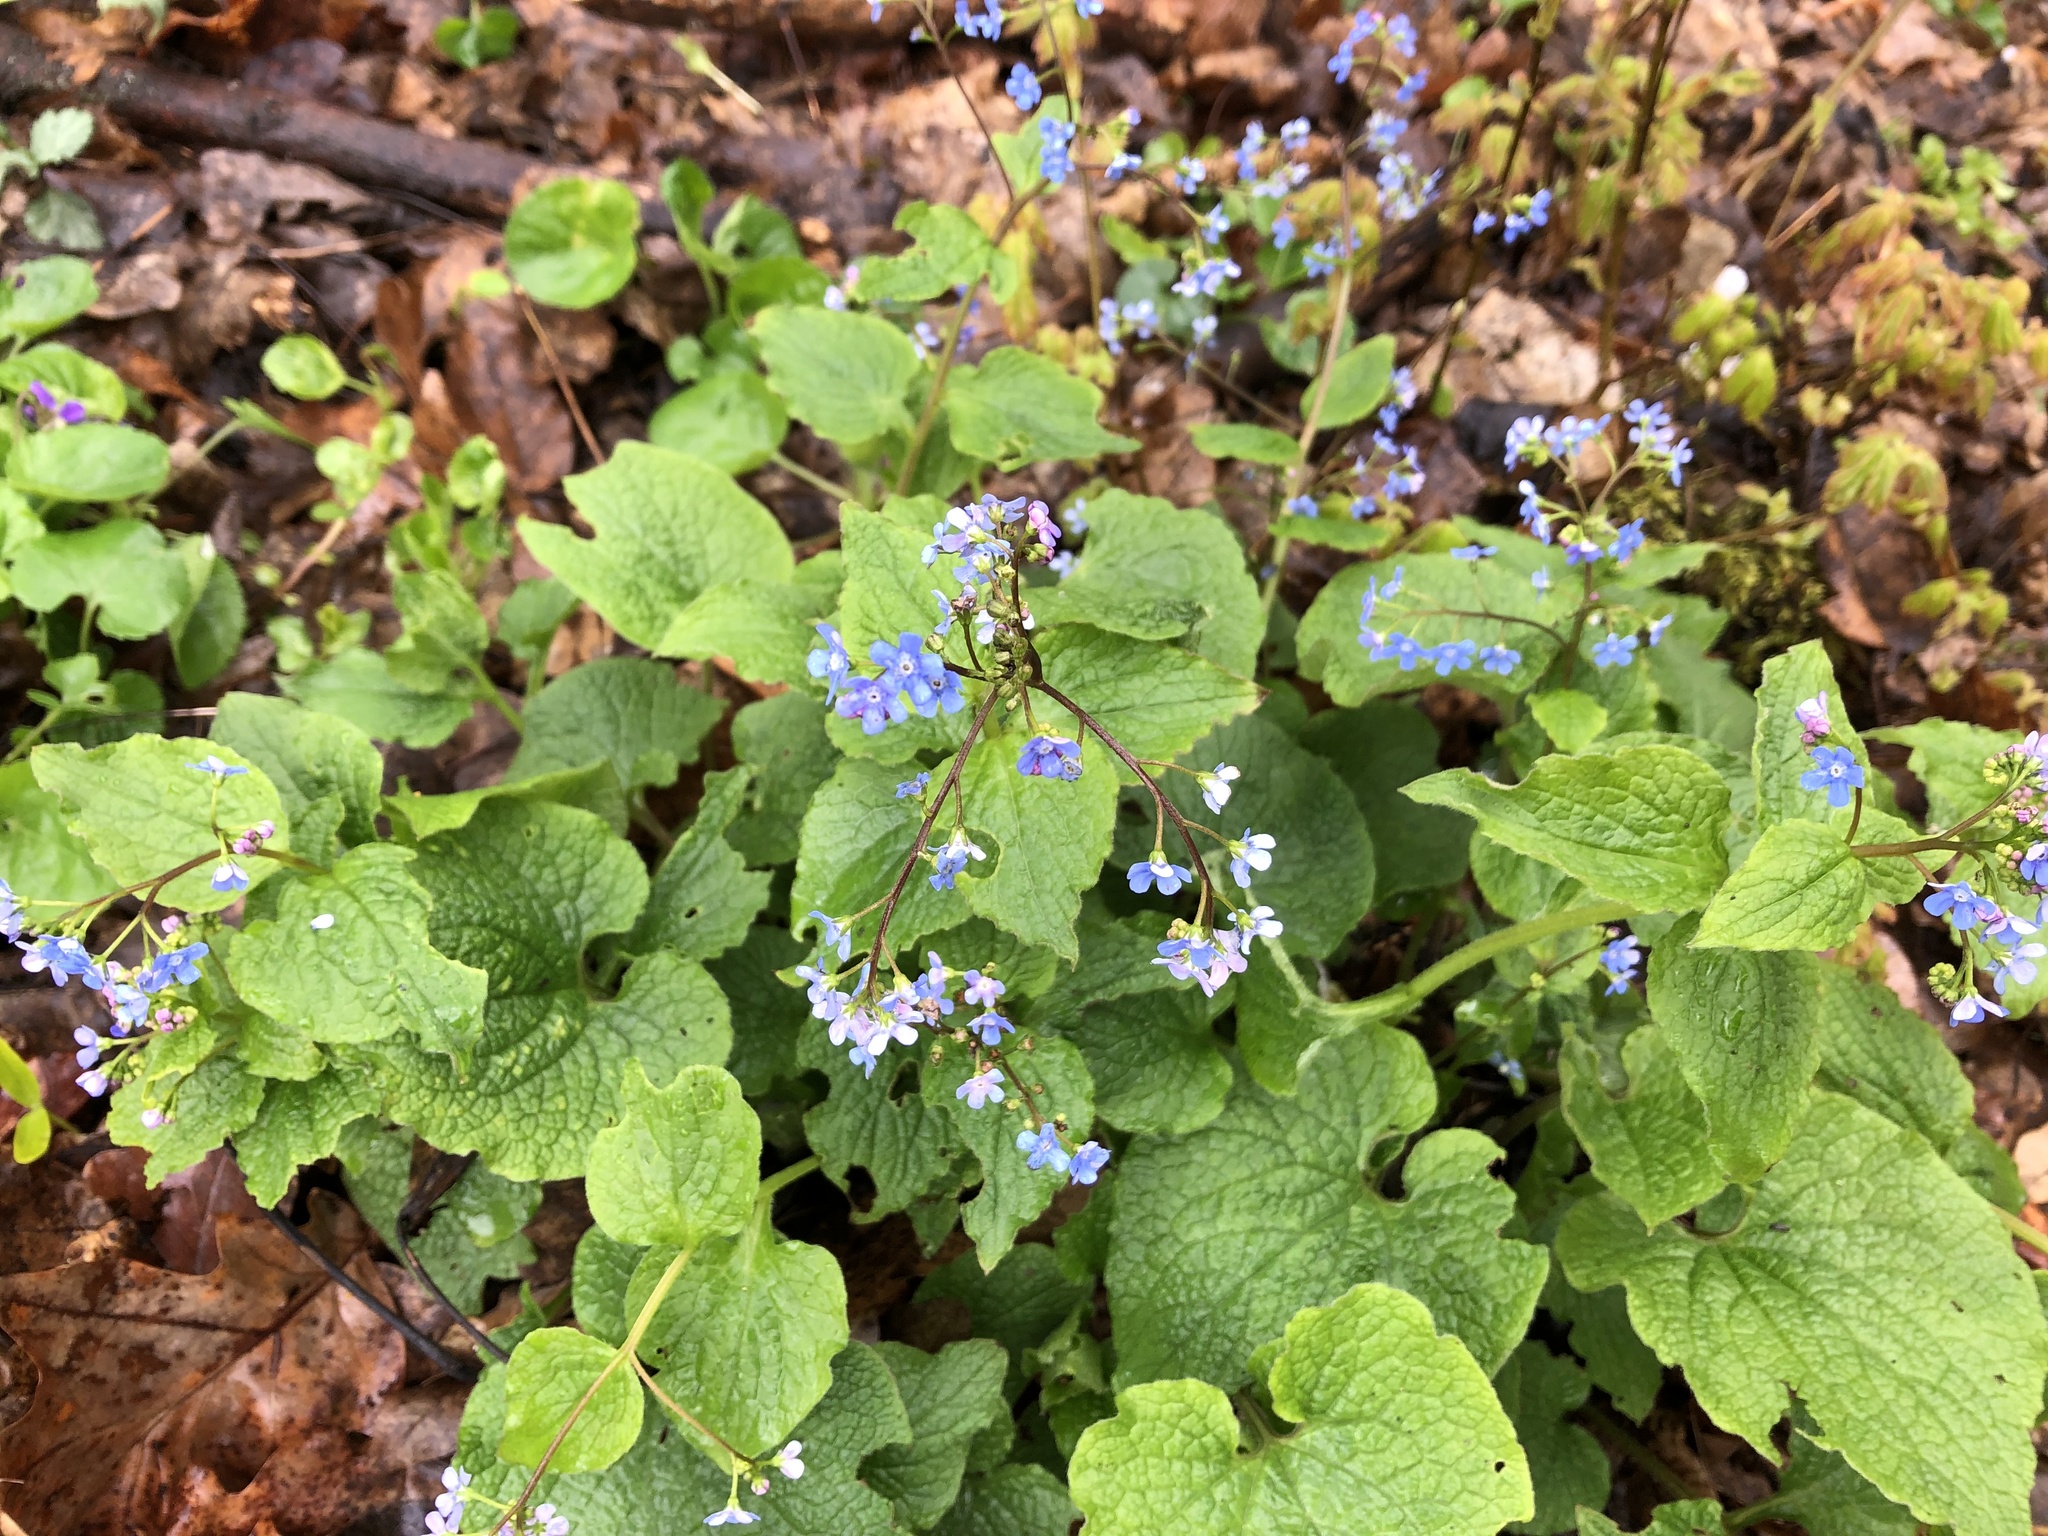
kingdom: Plantae
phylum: Tracheophyta
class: Magnoliopsida
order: Boraginales
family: Boraginaceae
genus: Brunnera
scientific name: Brunnera macrophylla
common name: Great forget-me-not
